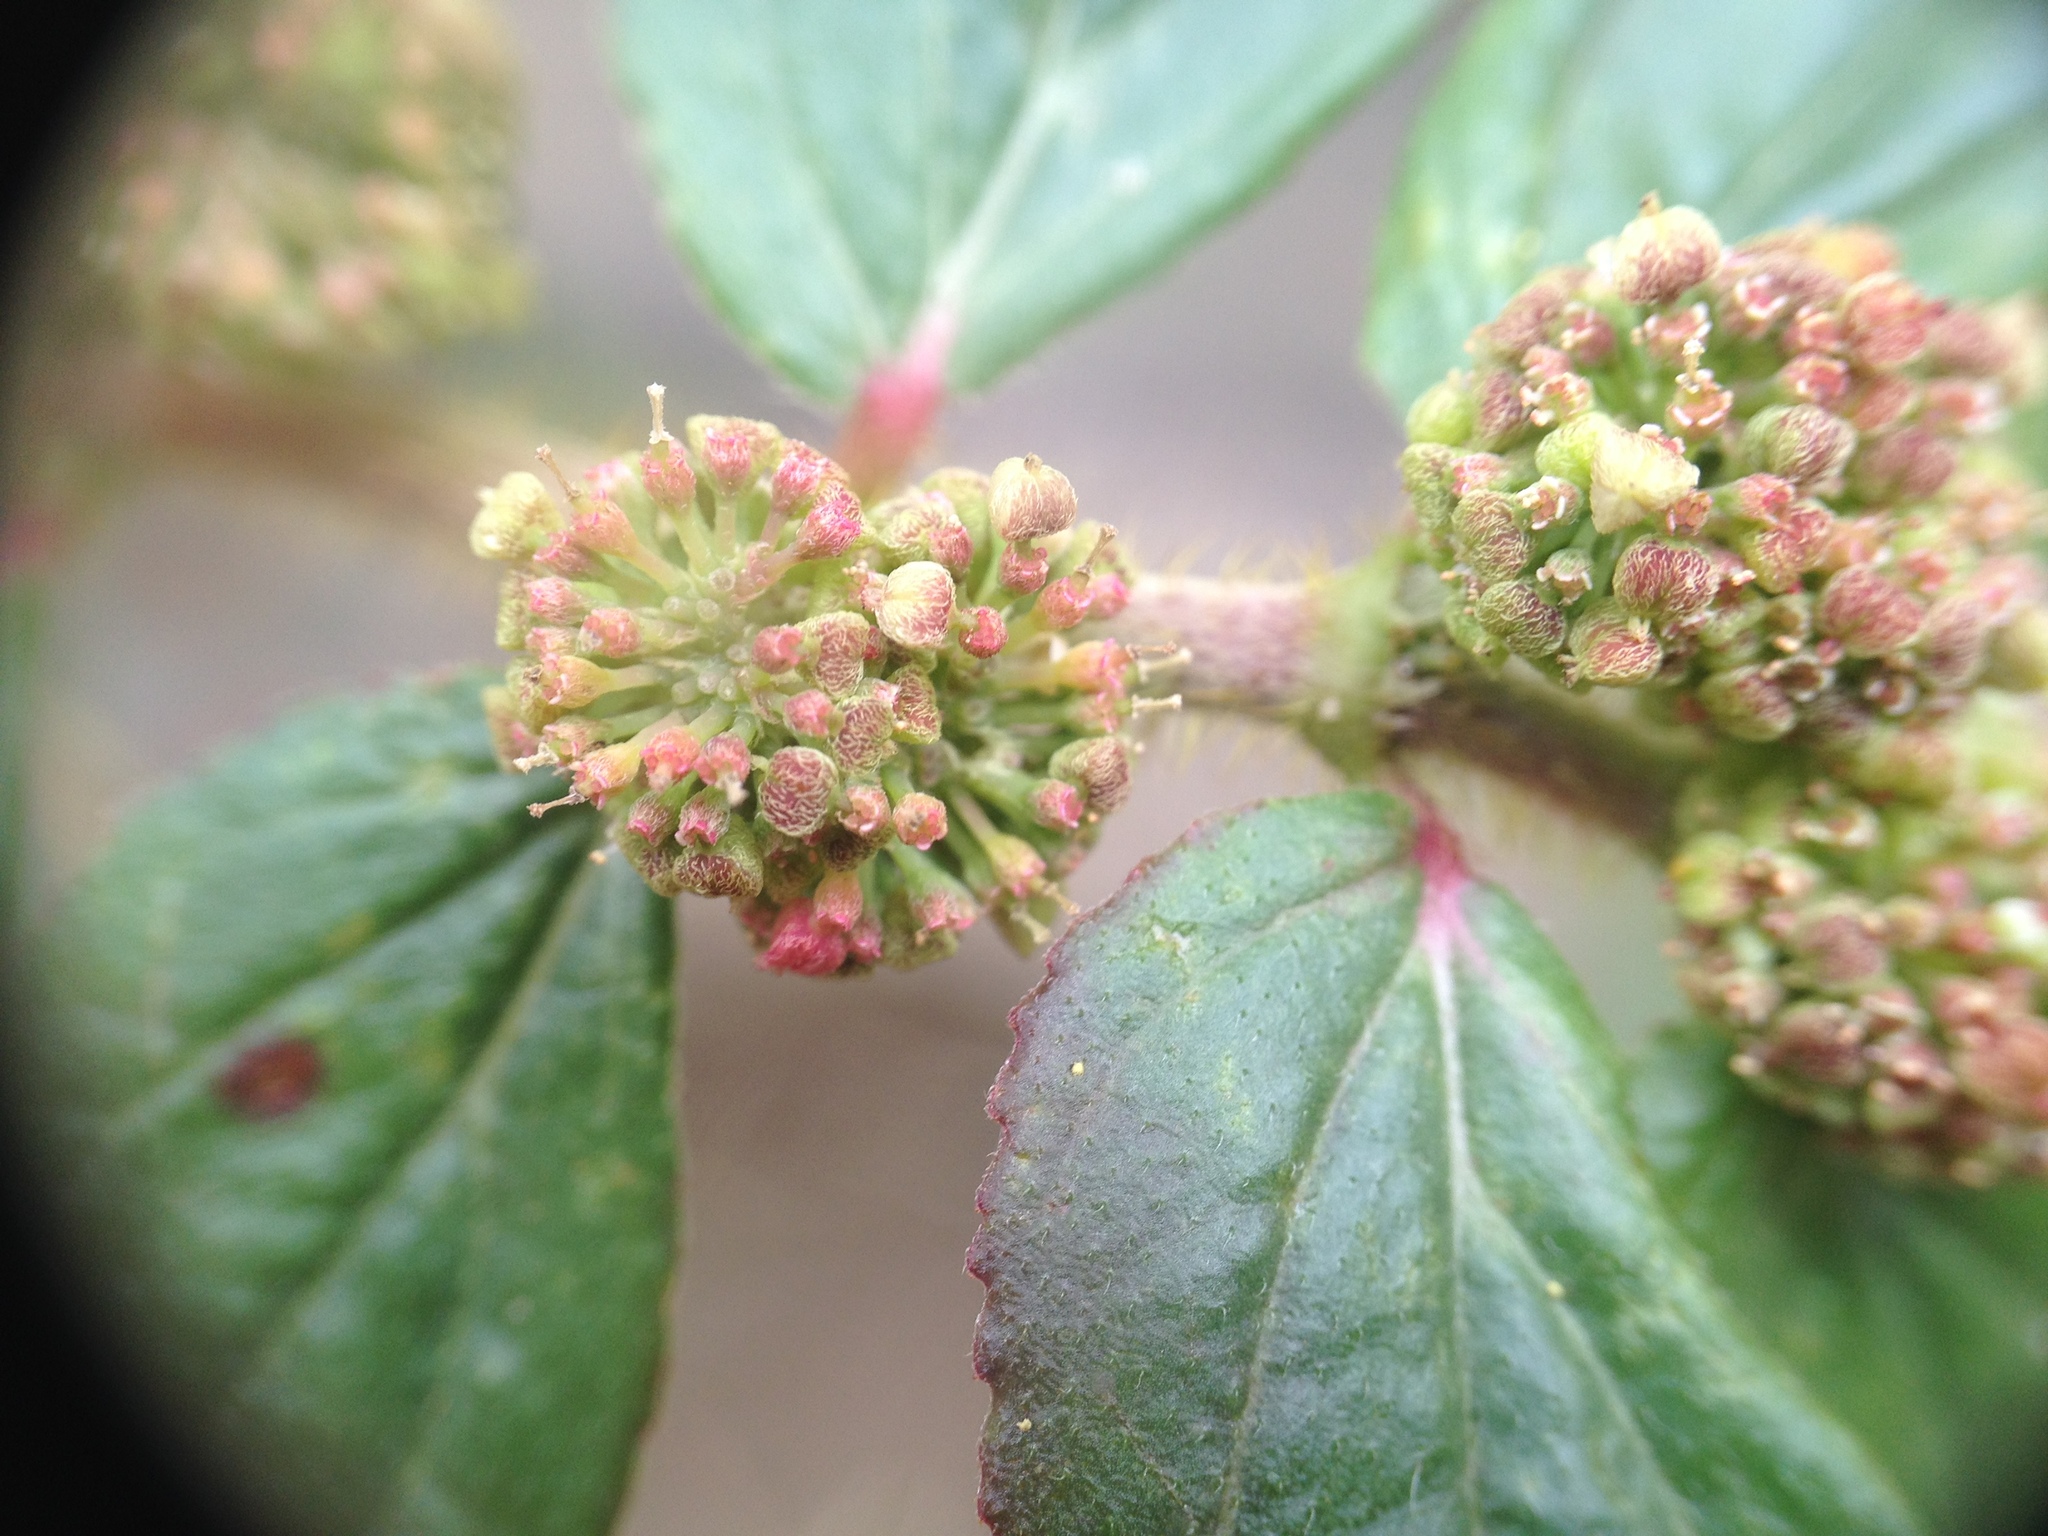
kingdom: Plantae
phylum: Tracheophyta
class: Magnoliopsida
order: Malpighiales
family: Euphorbiaceae
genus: Euphorbia
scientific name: Euphorbia hirta
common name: Pillpod sandmat
